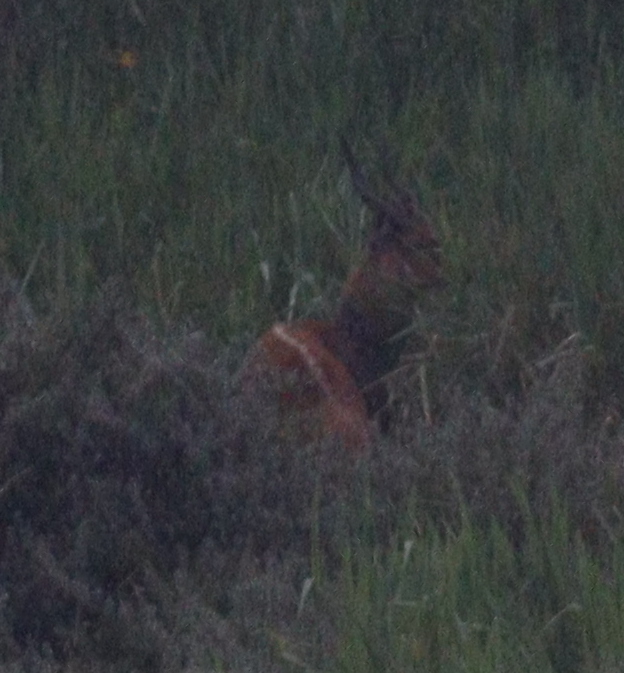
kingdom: Animalia
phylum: Chordata
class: Mammalia
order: Artiodactyla
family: Bovidae
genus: Tragelaphus
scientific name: Tragelaphus scriptus
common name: Bushbuck
